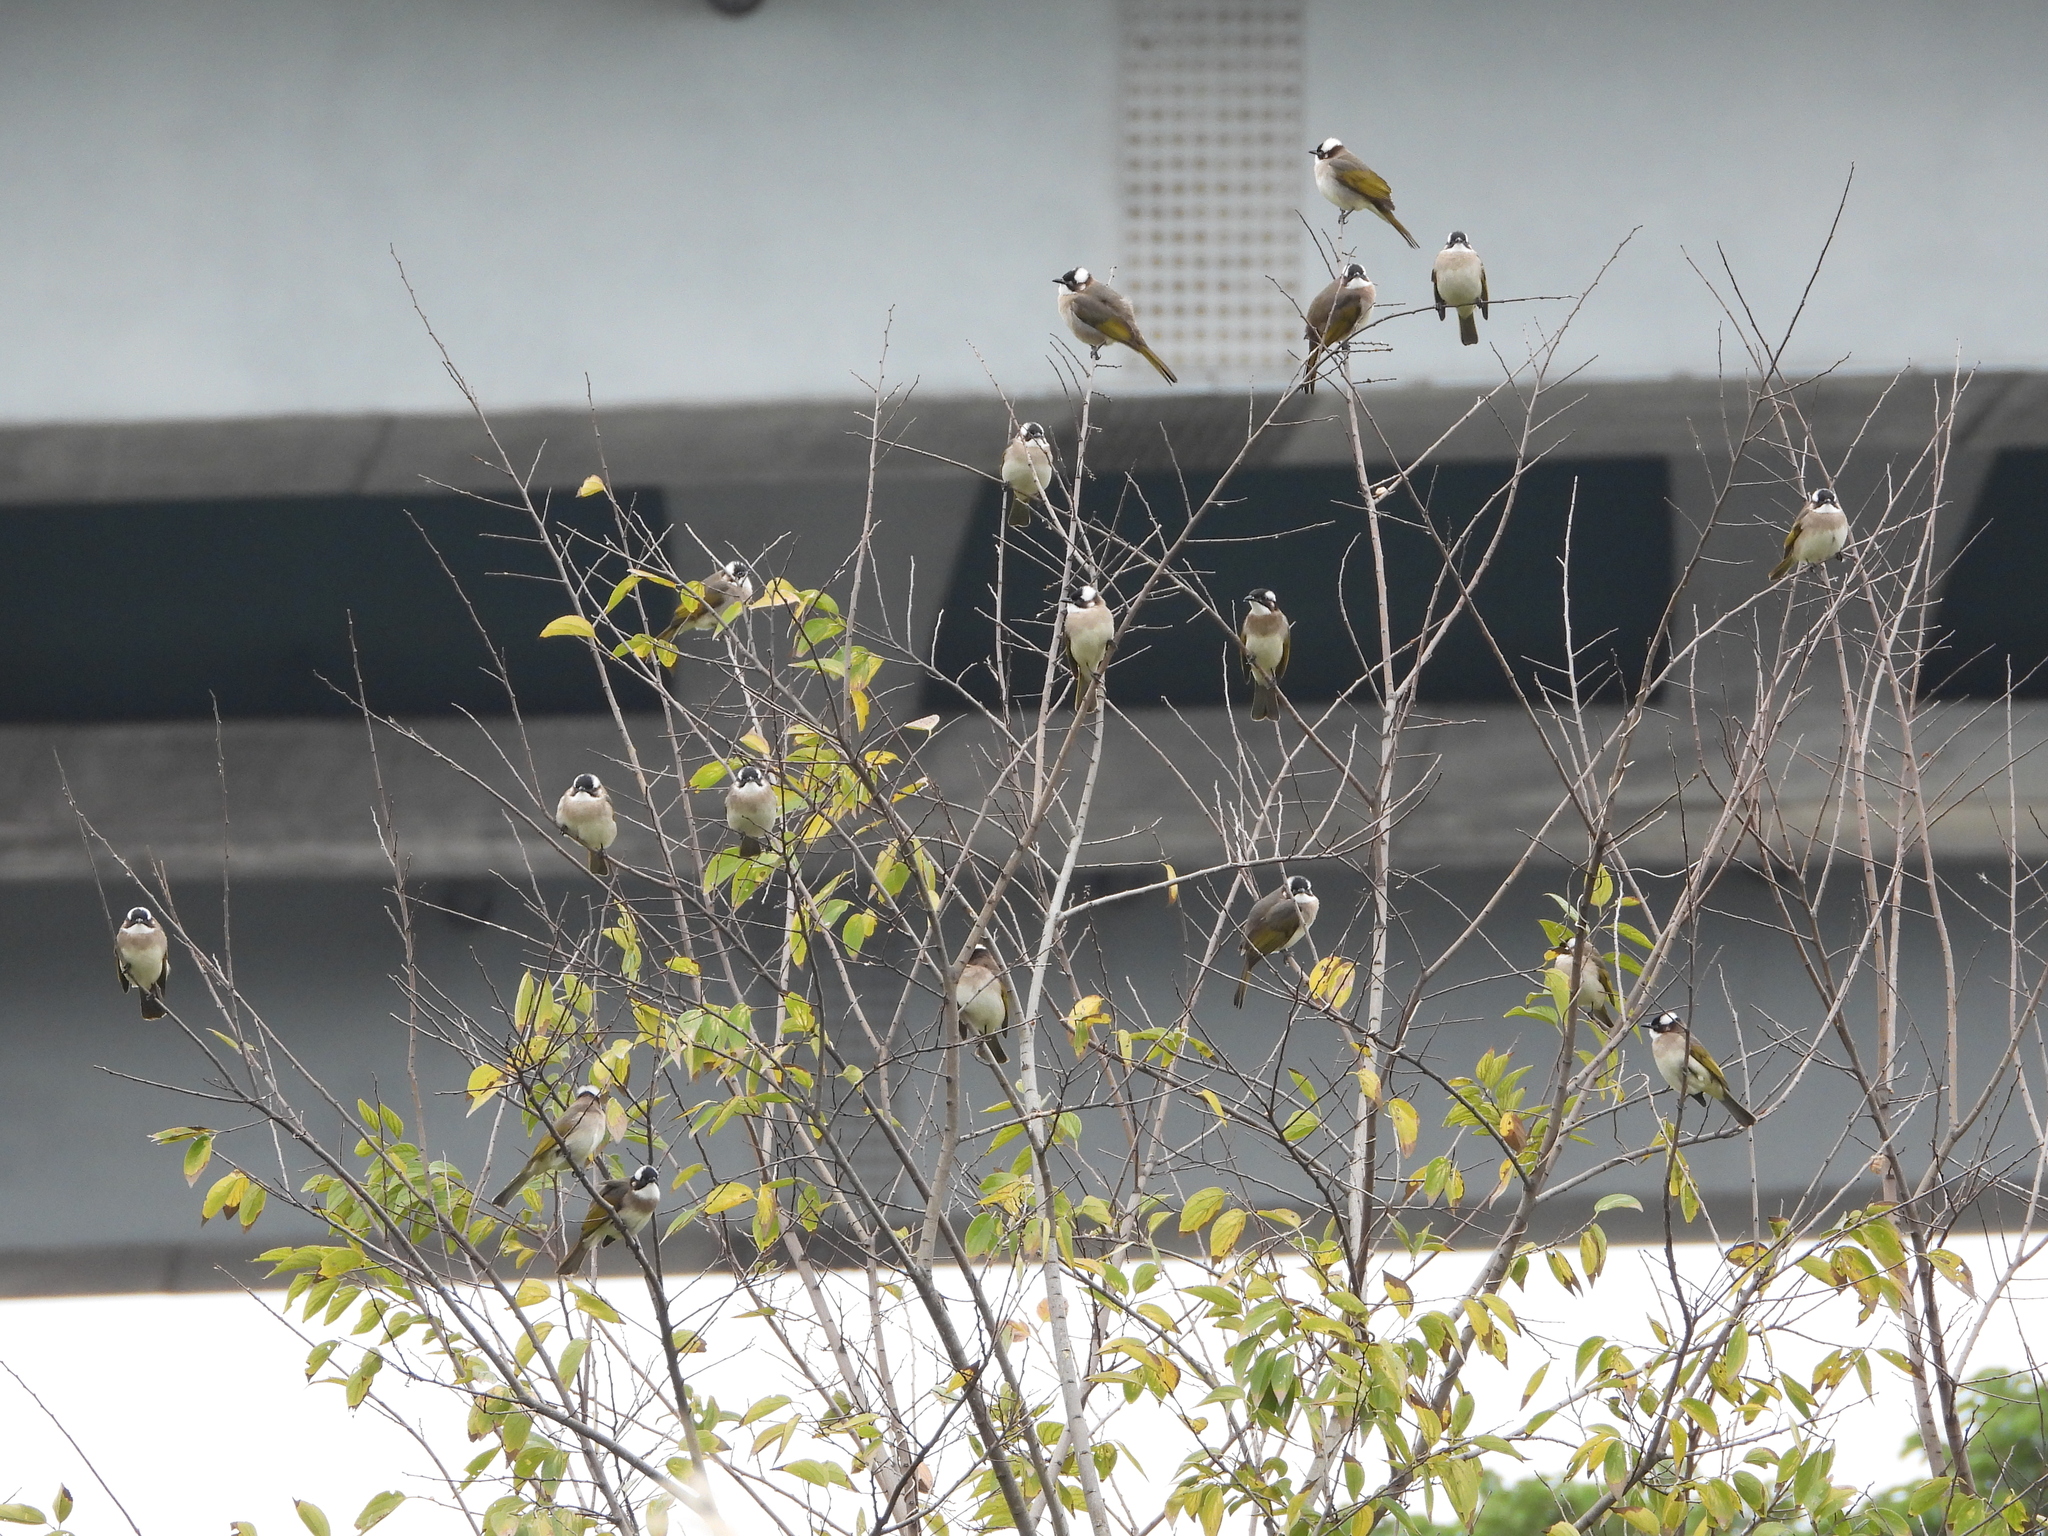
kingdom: Animalia
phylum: Chordata
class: Aves
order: Passeriformes
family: Pycnonotidae
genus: Pycnonotus
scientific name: Pycnonotus sinensis
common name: Light-vented bulbul
